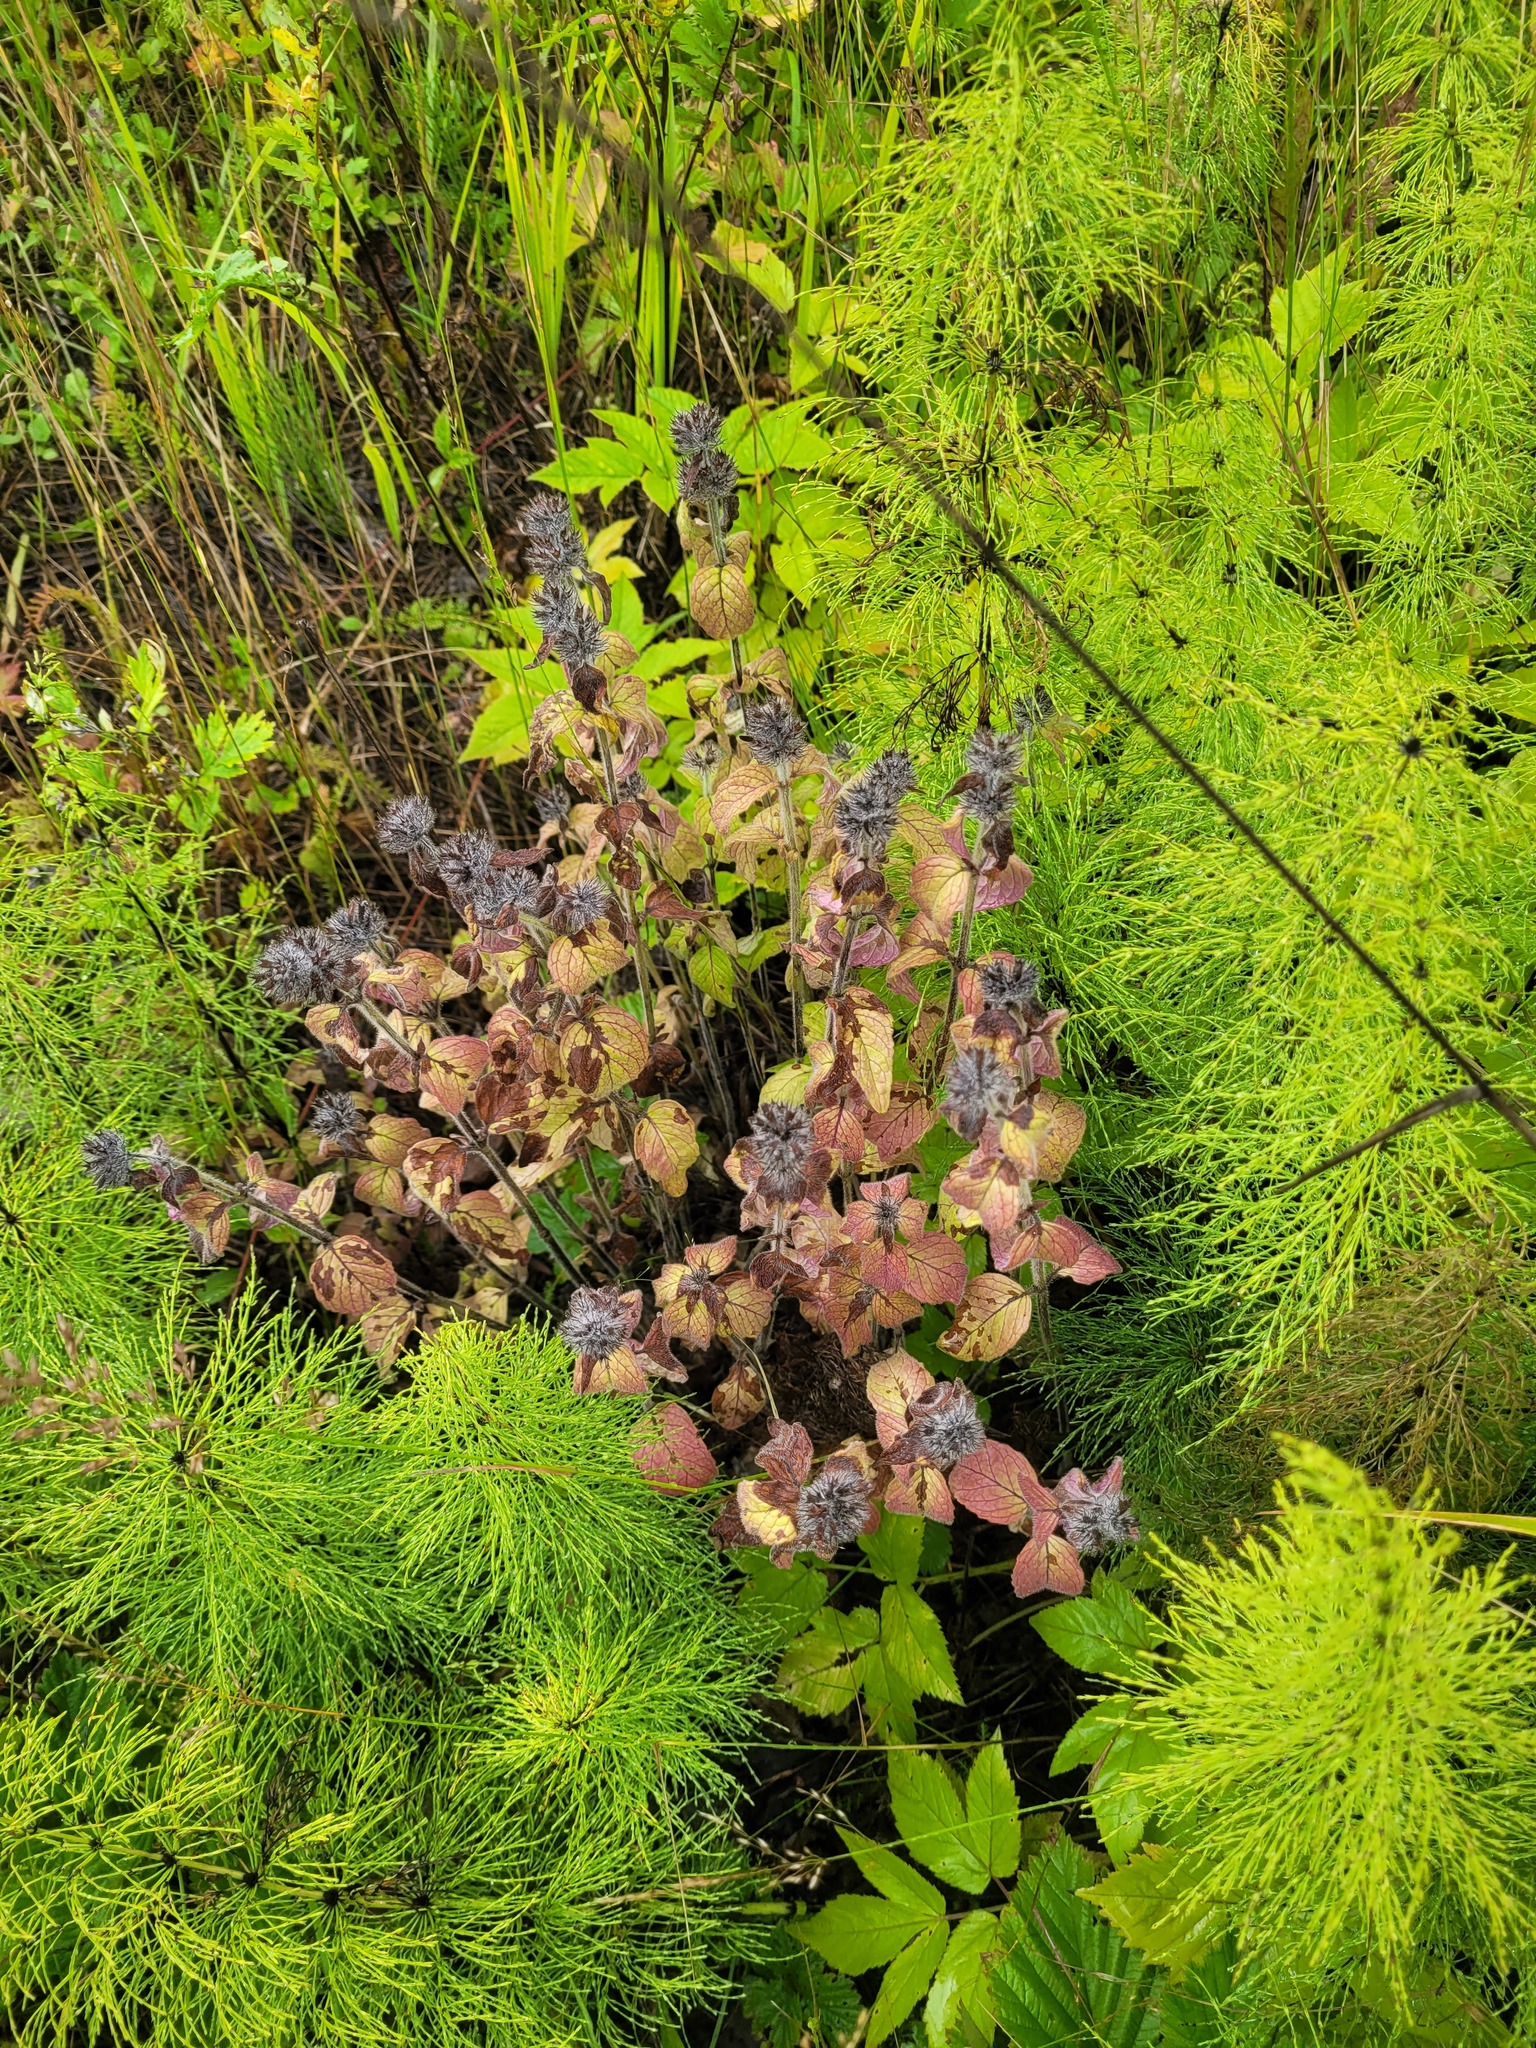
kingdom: Plantae
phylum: Tracheophyta
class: Magnoliopsida
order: Lamiales
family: Lamiaceae
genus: Clinopodium
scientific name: Clinopodium vulgare
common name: Wild basil
